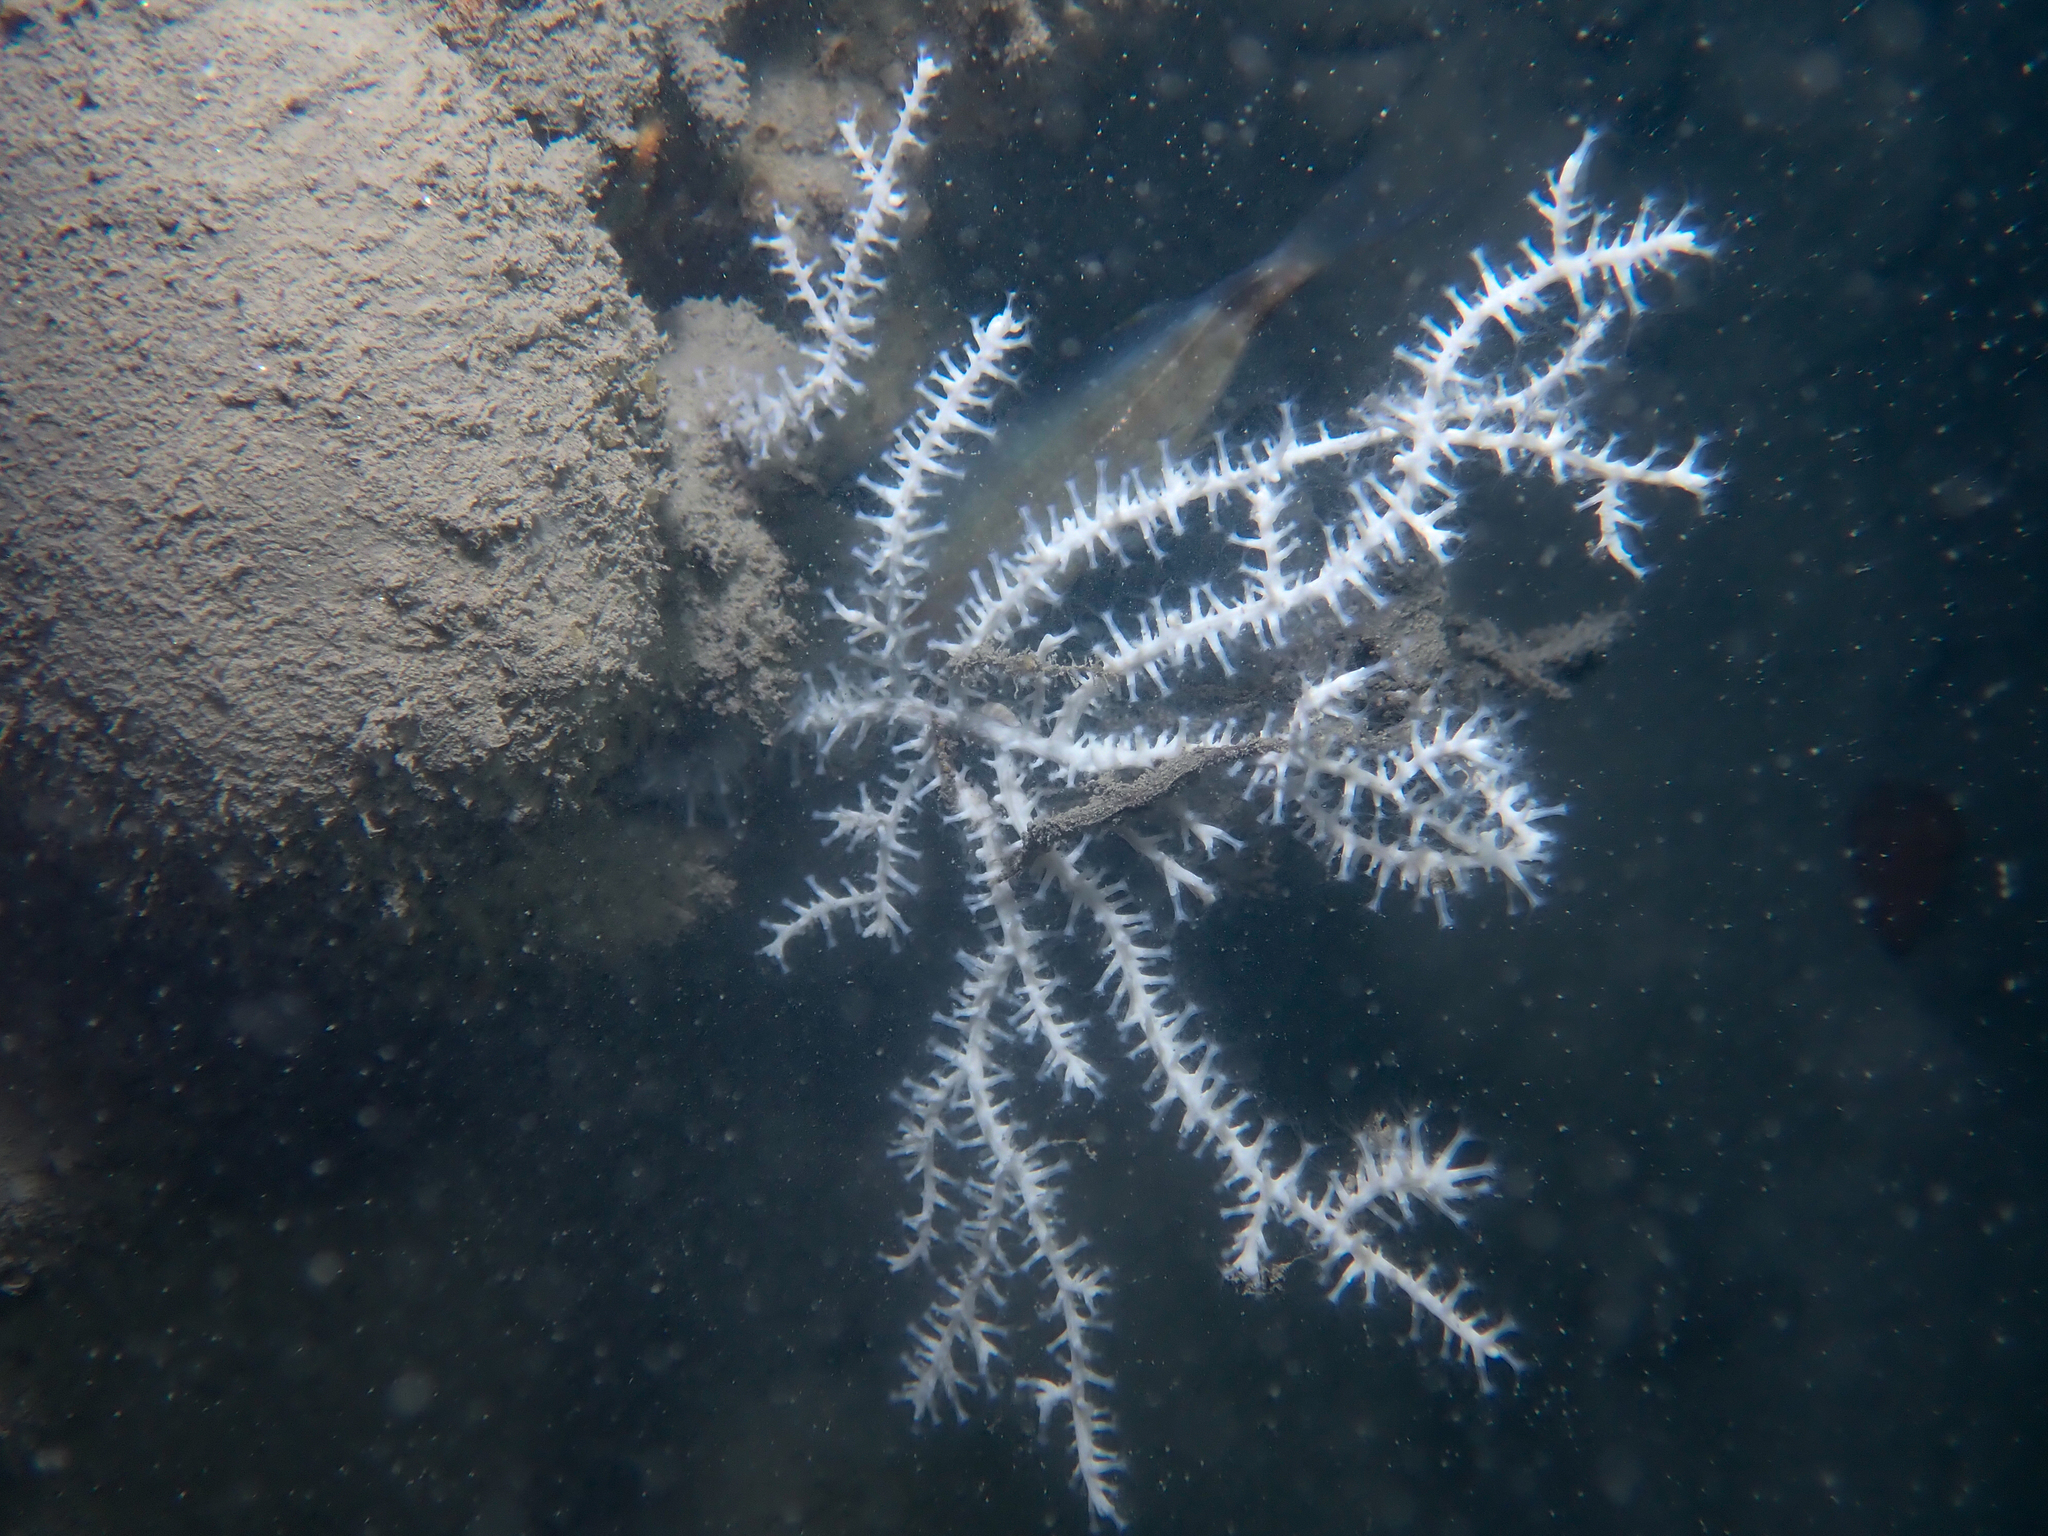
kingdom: Animalia
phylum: Cnidaria
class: Anthozoa
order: Malacalcyonacea
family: Eunicellidae
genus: Eunicella
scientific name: Eunicella verrucosa
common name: Pink sea-fan
